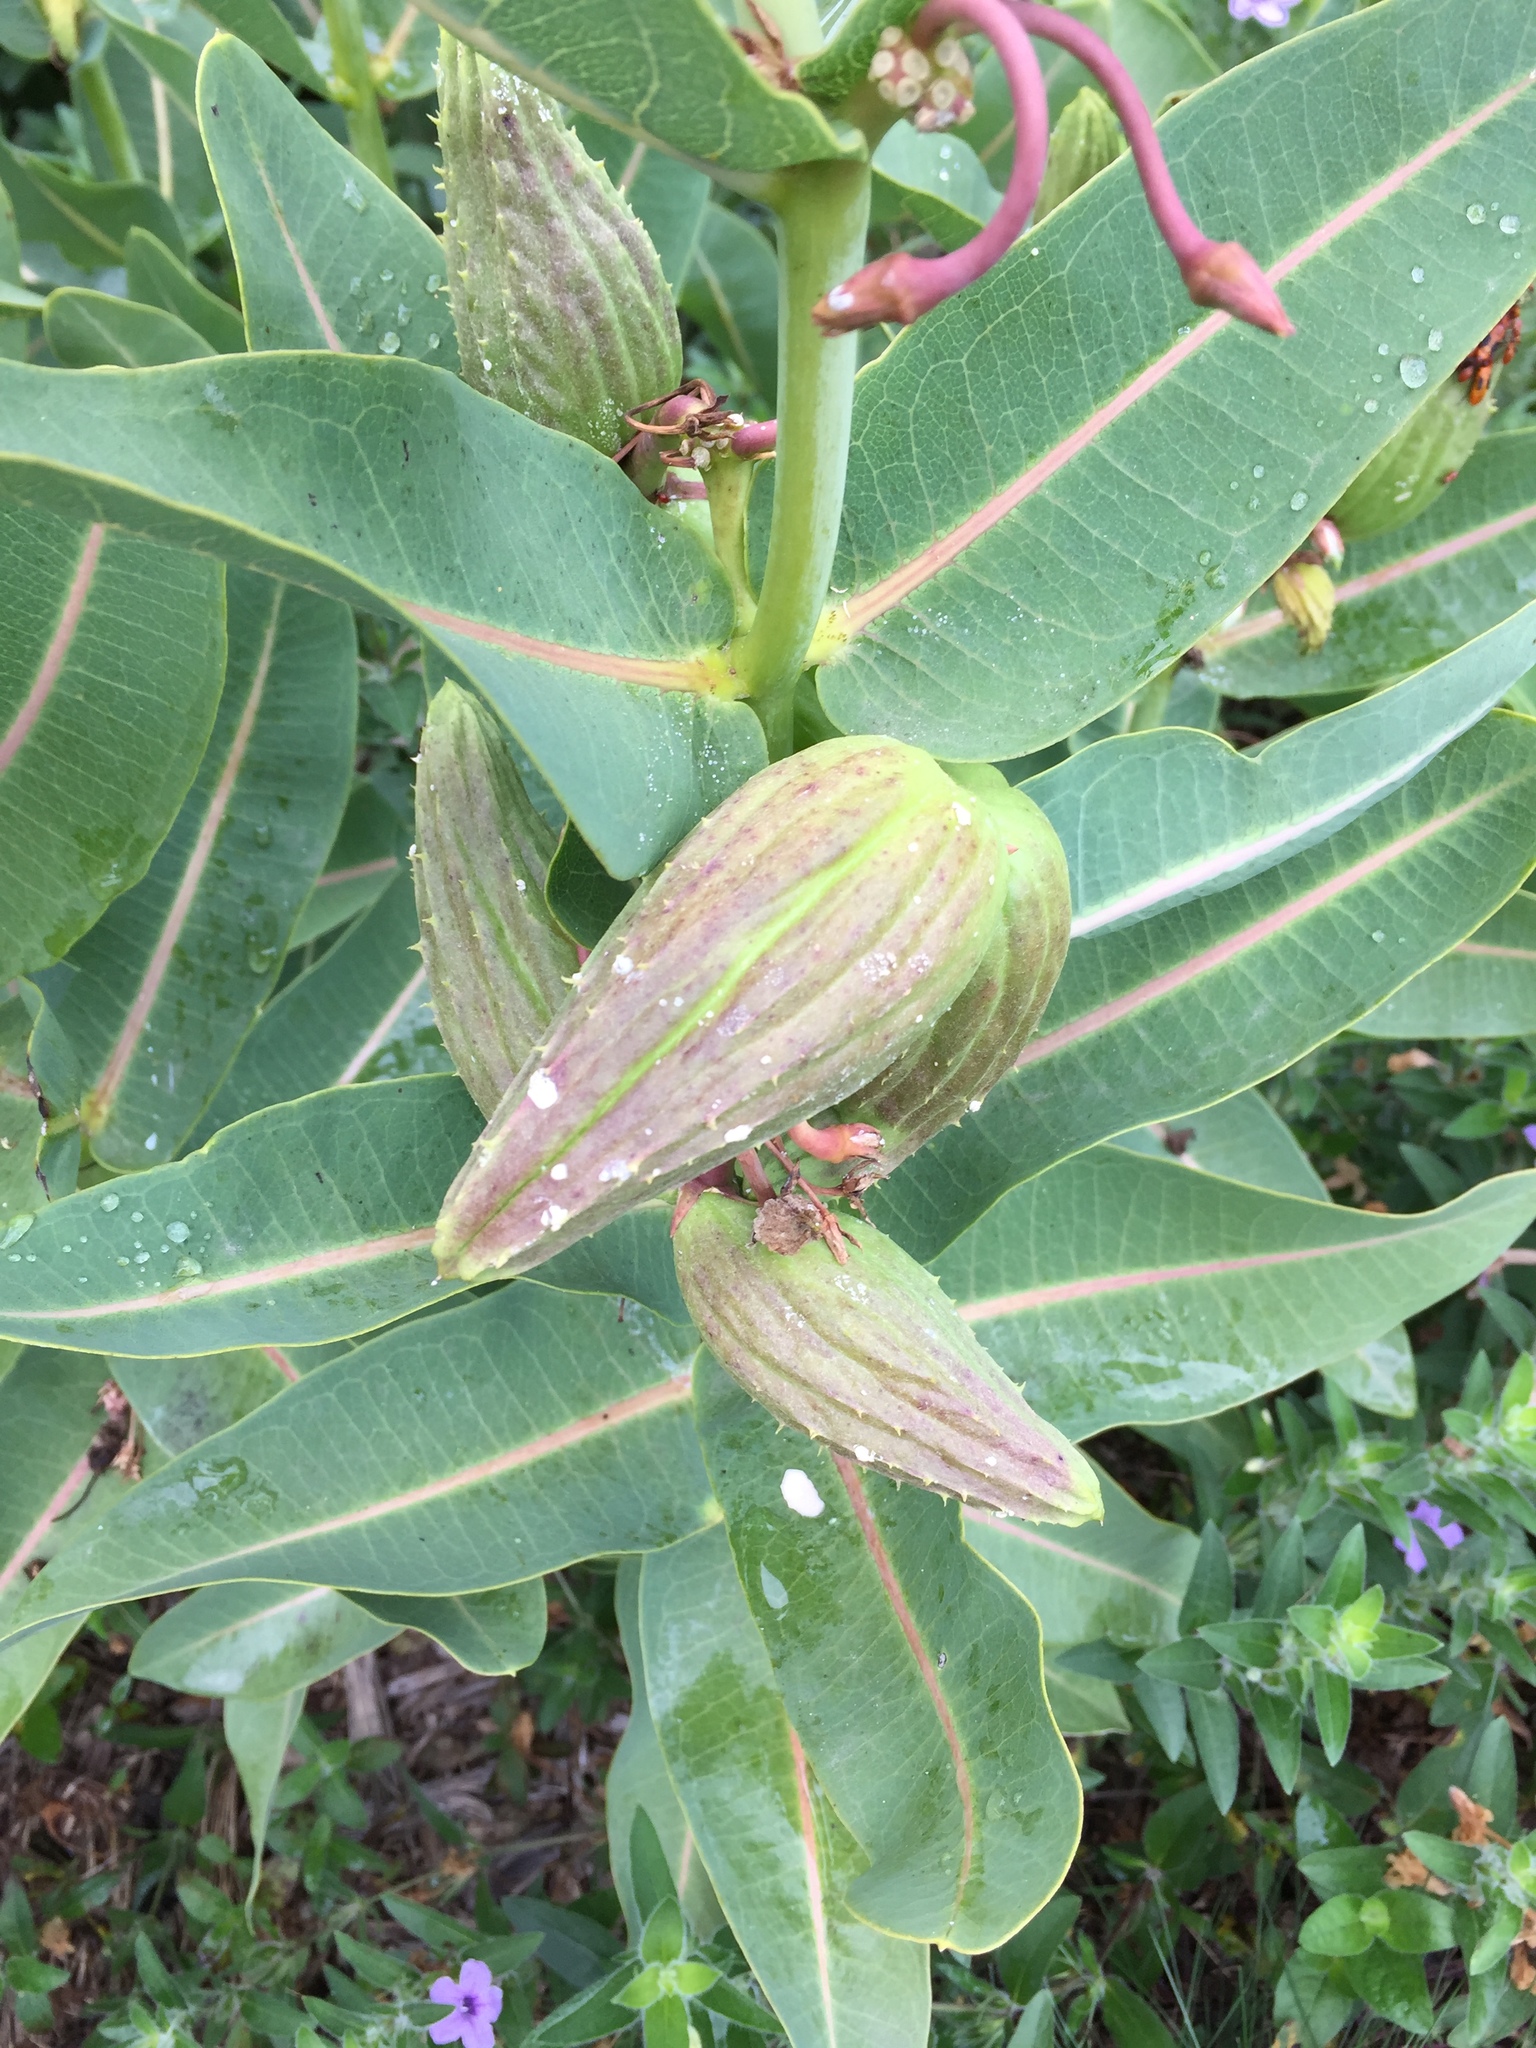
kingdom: Plantae
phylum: Tracheophyta
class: Magnoliopsida
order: Gentianales
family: Apocynaceae
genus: Asclepias
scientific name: Asclepias sullivantii
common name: Prairie milkweed
